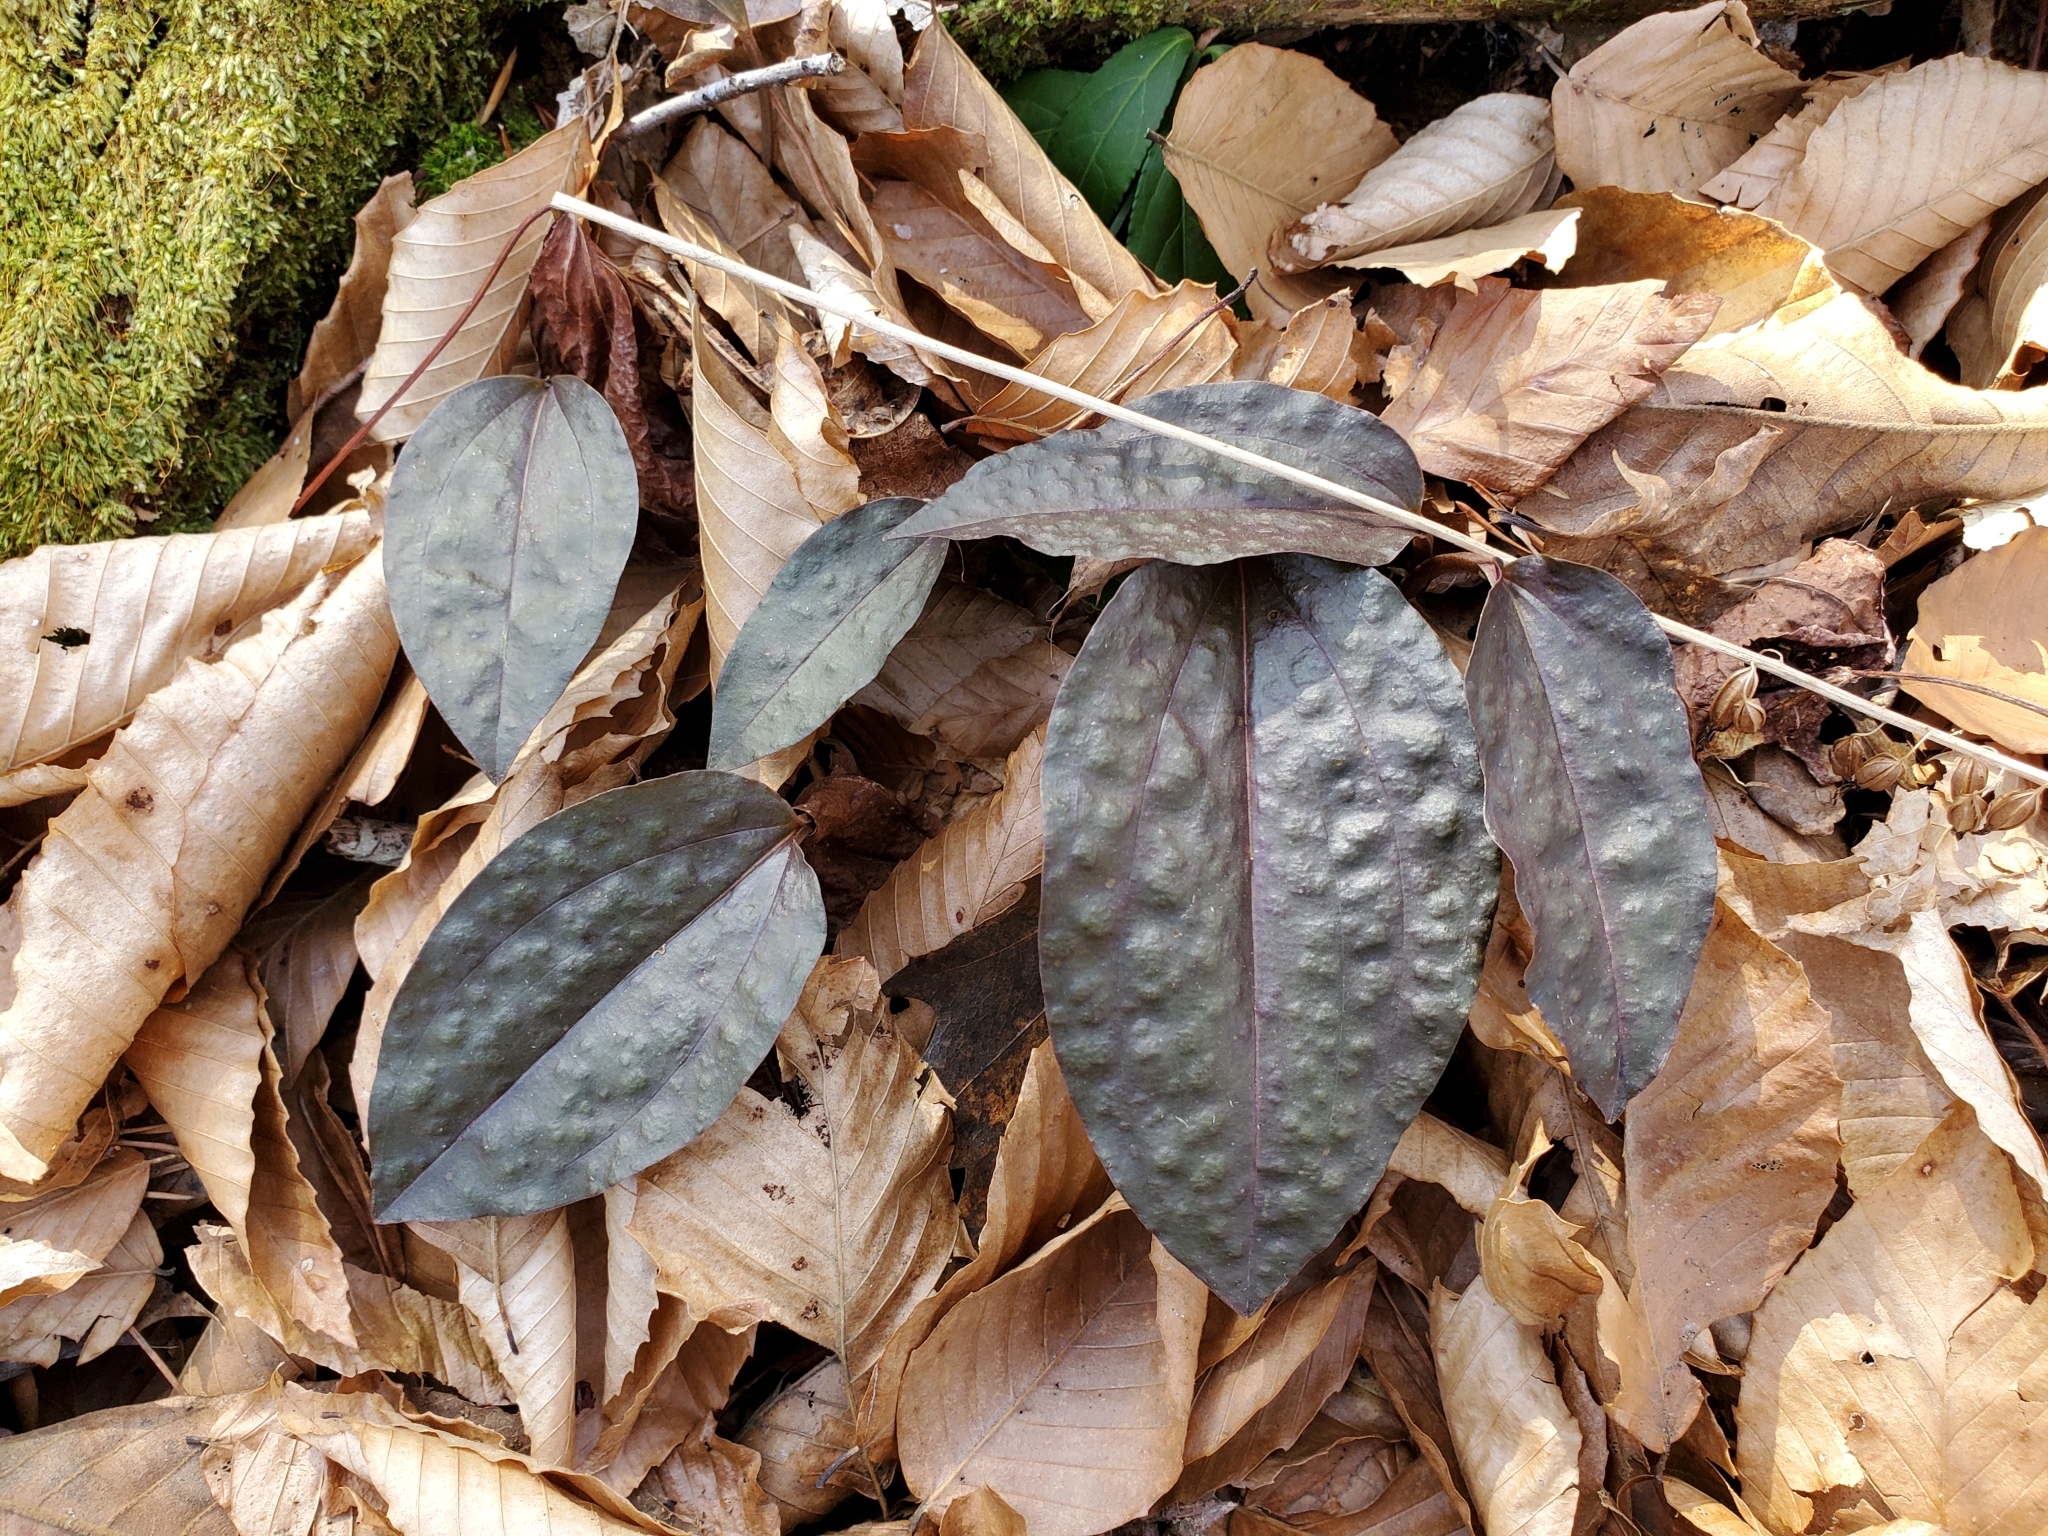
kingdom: Plantae
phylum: Tracheophyta
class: Liliopsida
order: Asparagales
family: Orchidaceae
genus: Tipularia
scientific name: Tipularia discolor
